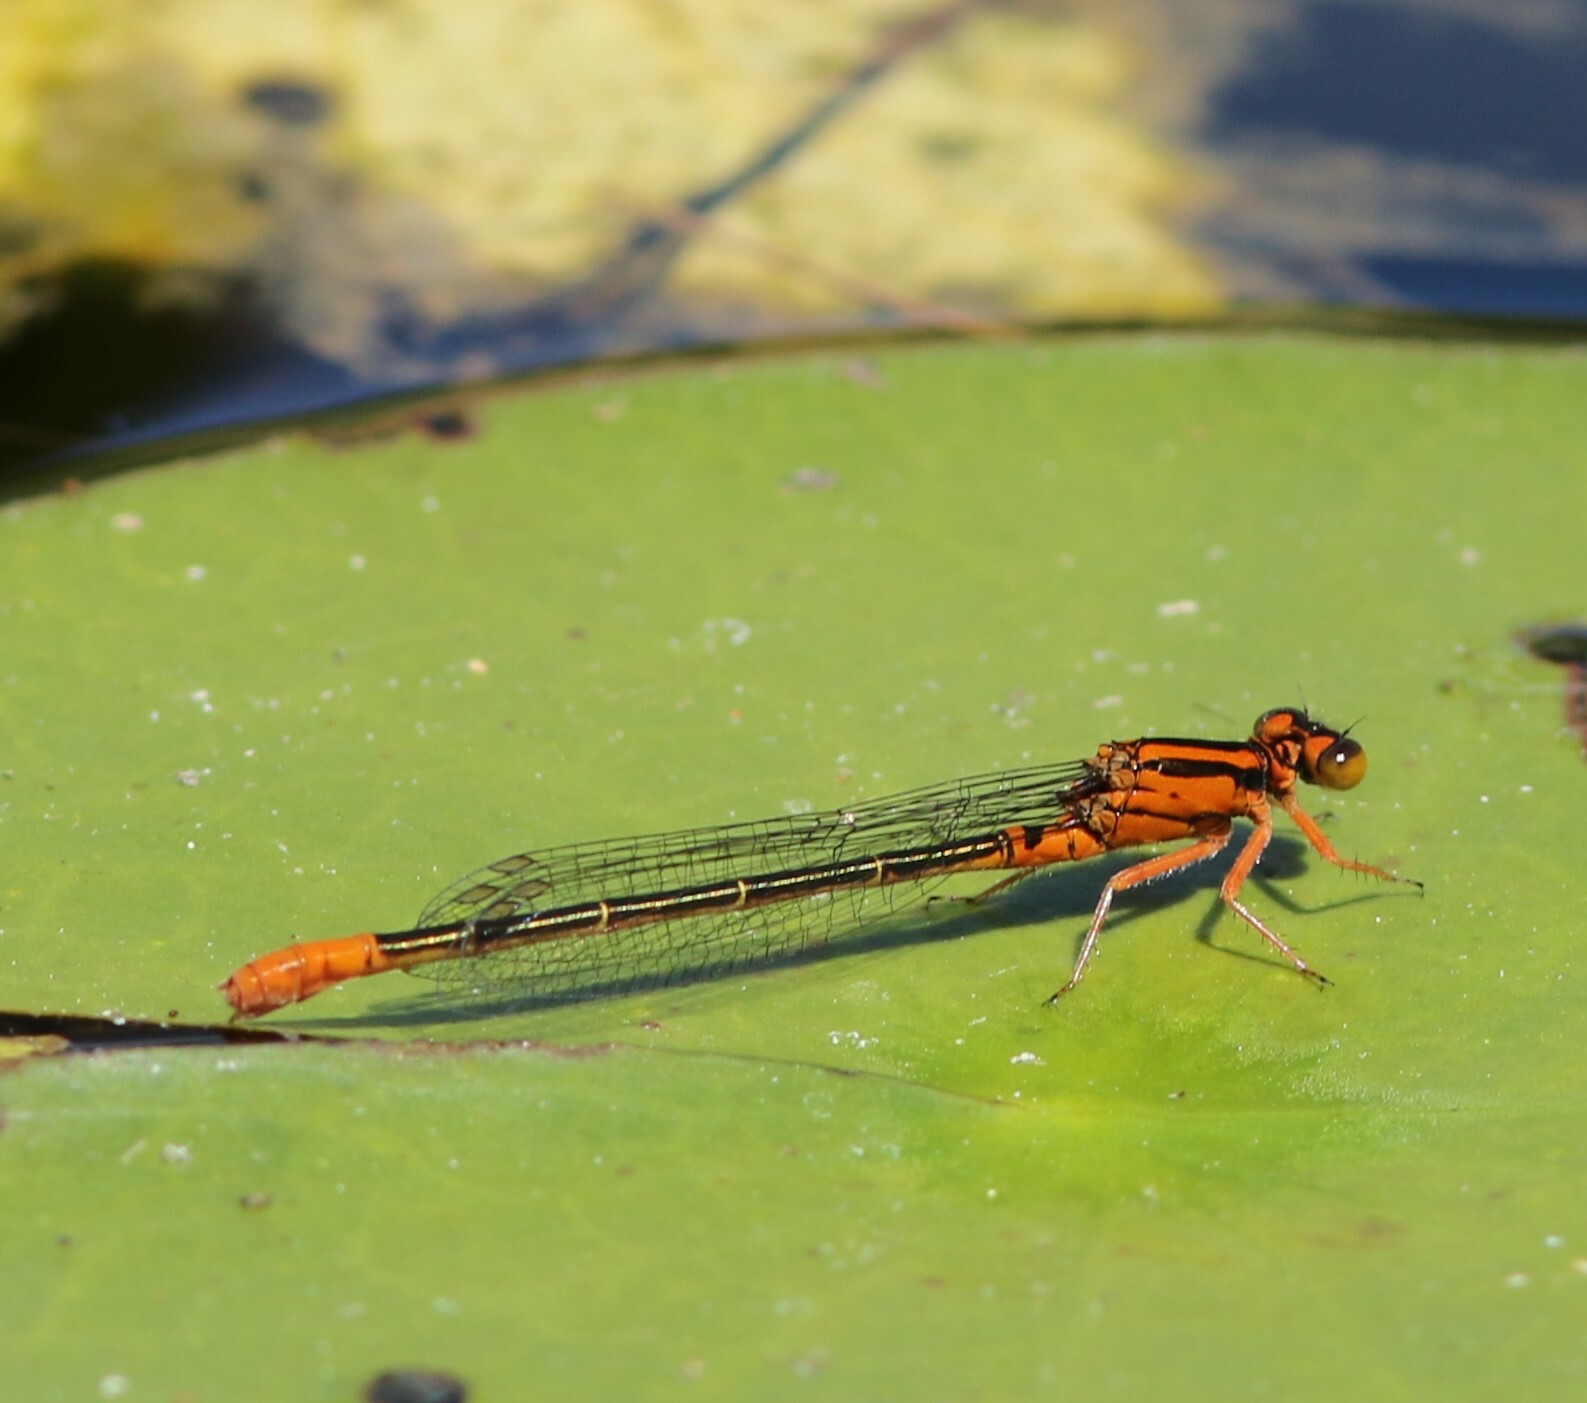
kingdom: Animalia
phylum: Arthropoda
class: Insecta
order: Odonata
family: Coenagrionidae
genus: Ischnura
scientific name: Ischnura kellicotti
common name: Lilypad forktail
